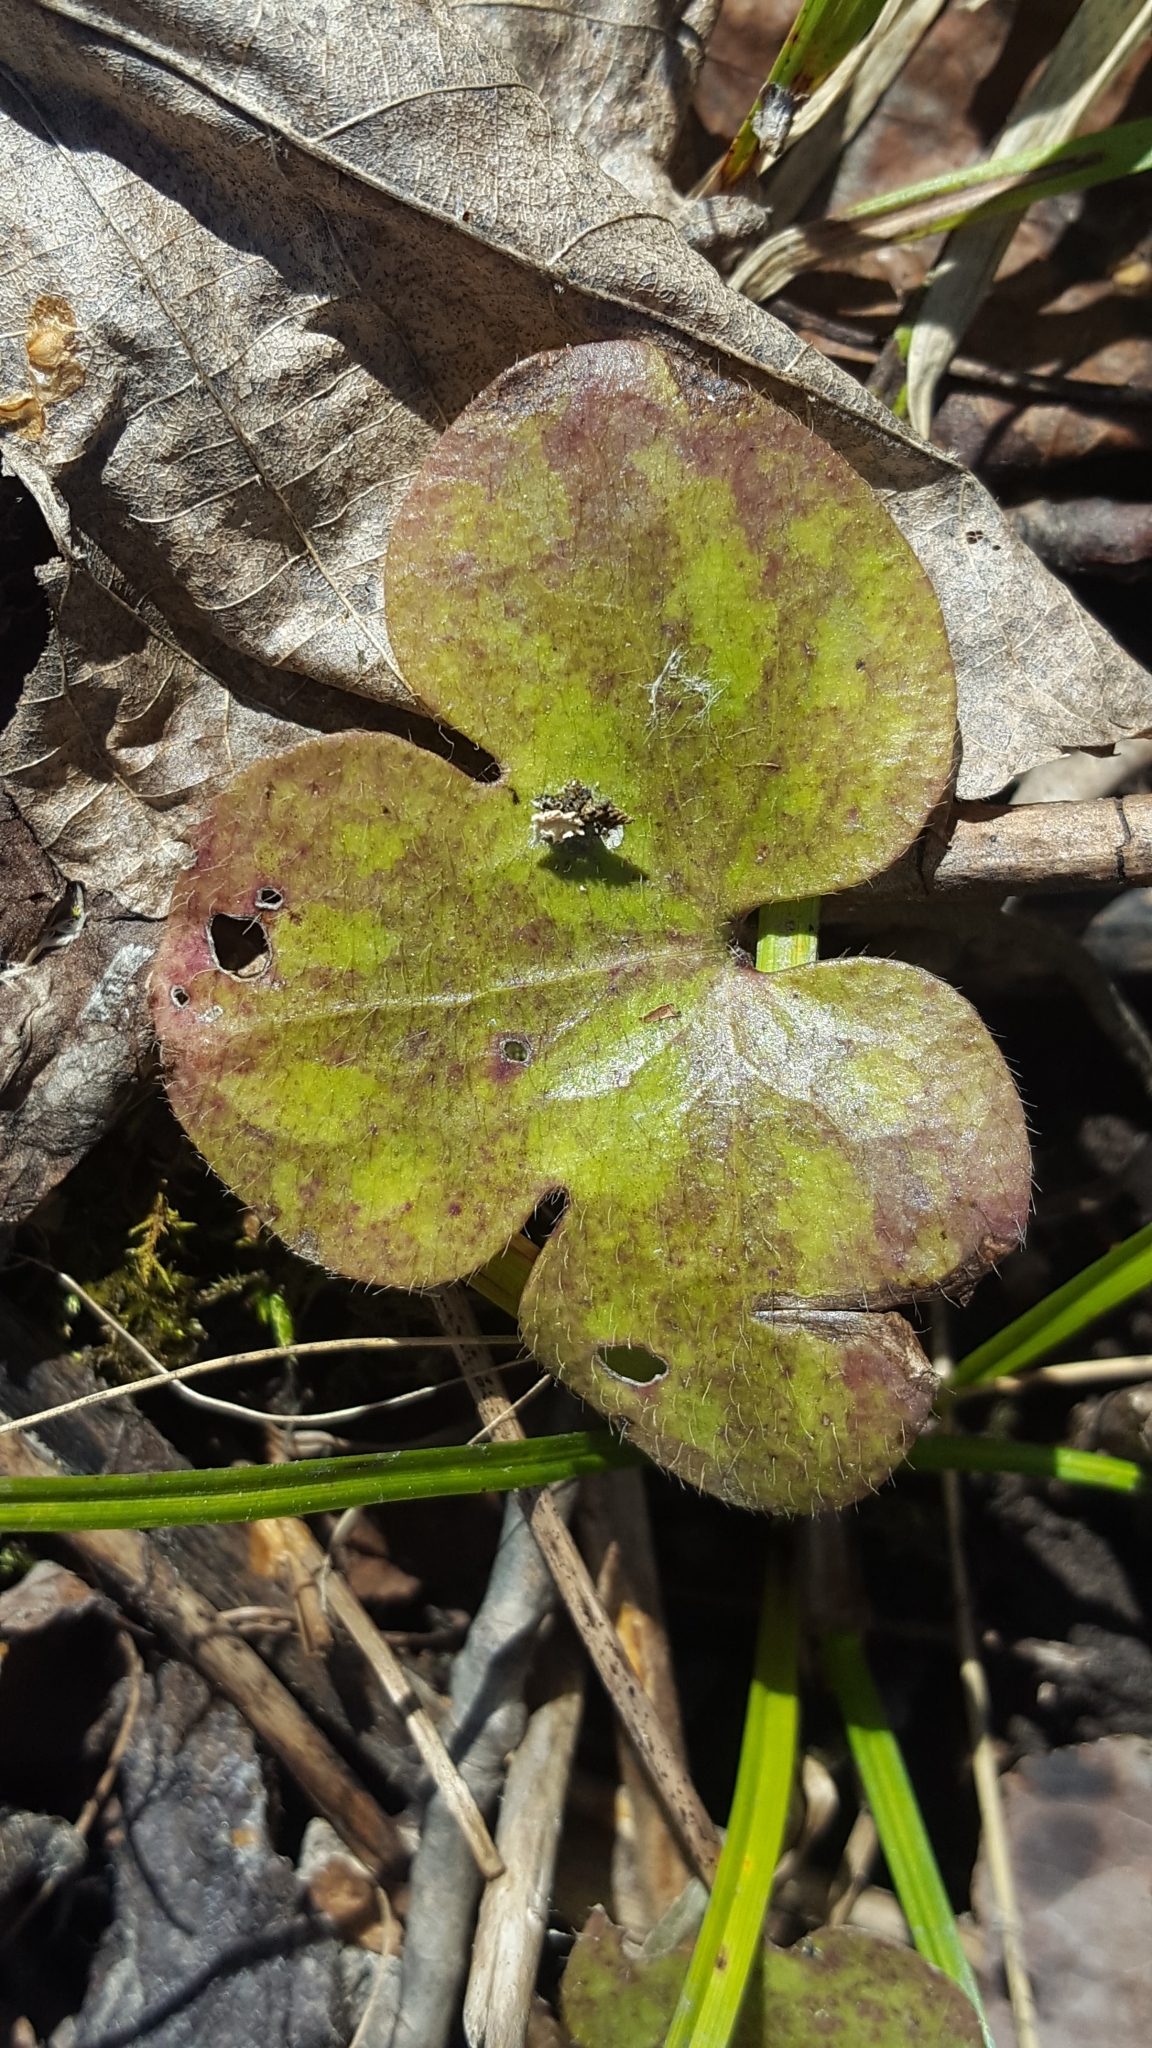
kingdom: Plantae
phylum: Tracheophyta
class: Magnoliopsida
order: Ranunculales
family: Ranunculaceae
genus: Hepatica
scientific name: Hepatica americana
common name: American hepatica
